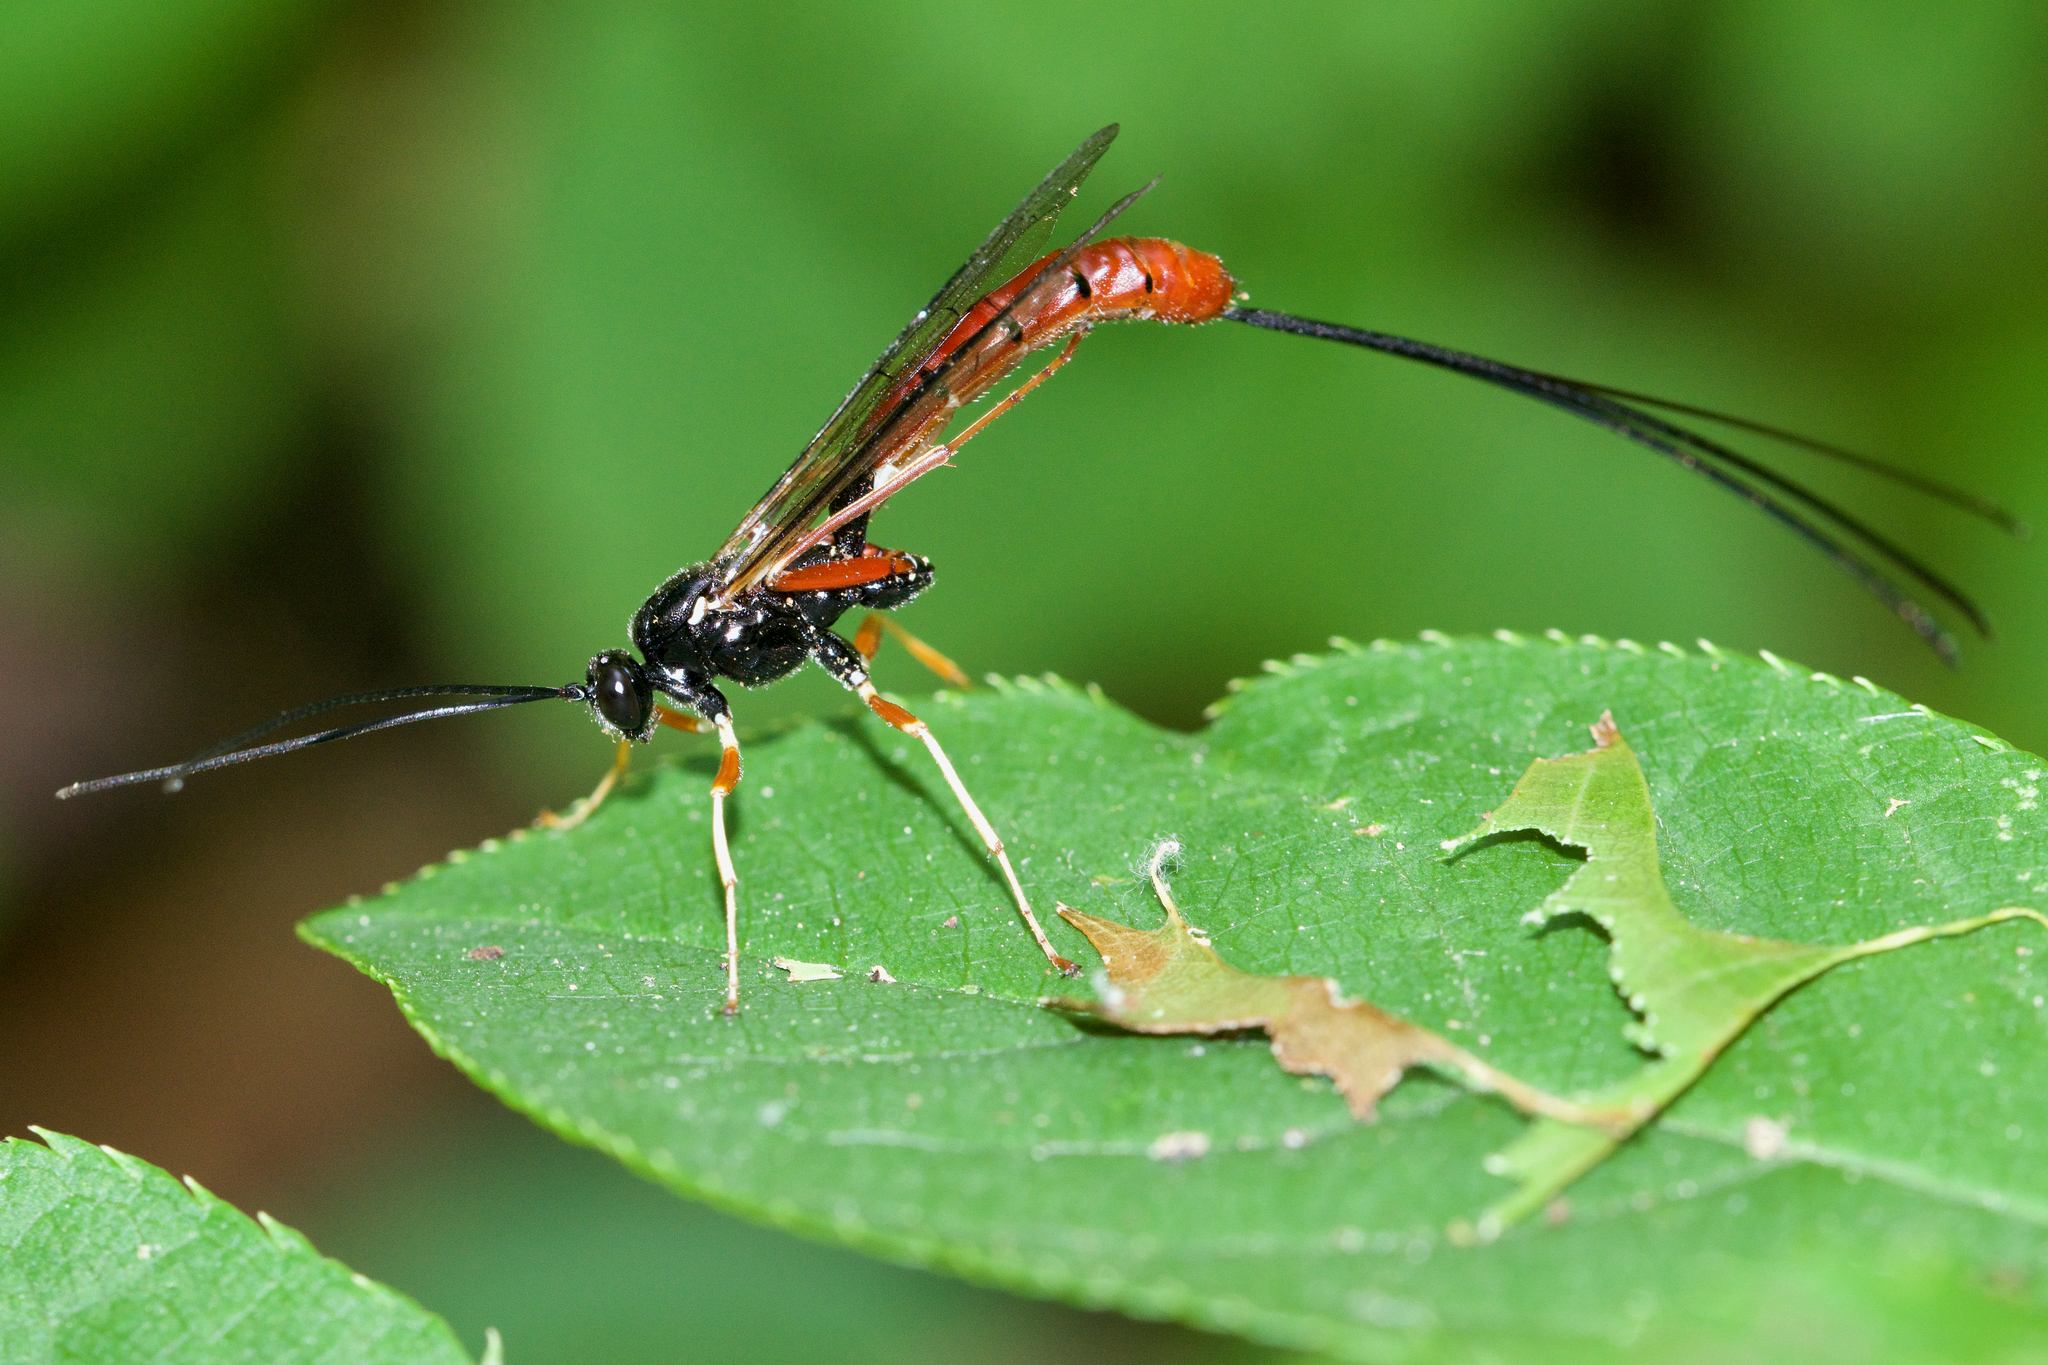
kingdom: Animalia
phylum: Arthropoda
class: Insecta
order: Hymenoptera
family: Ichneumonidae
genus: Dolichomitus
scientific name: Dolichomitus irritator
